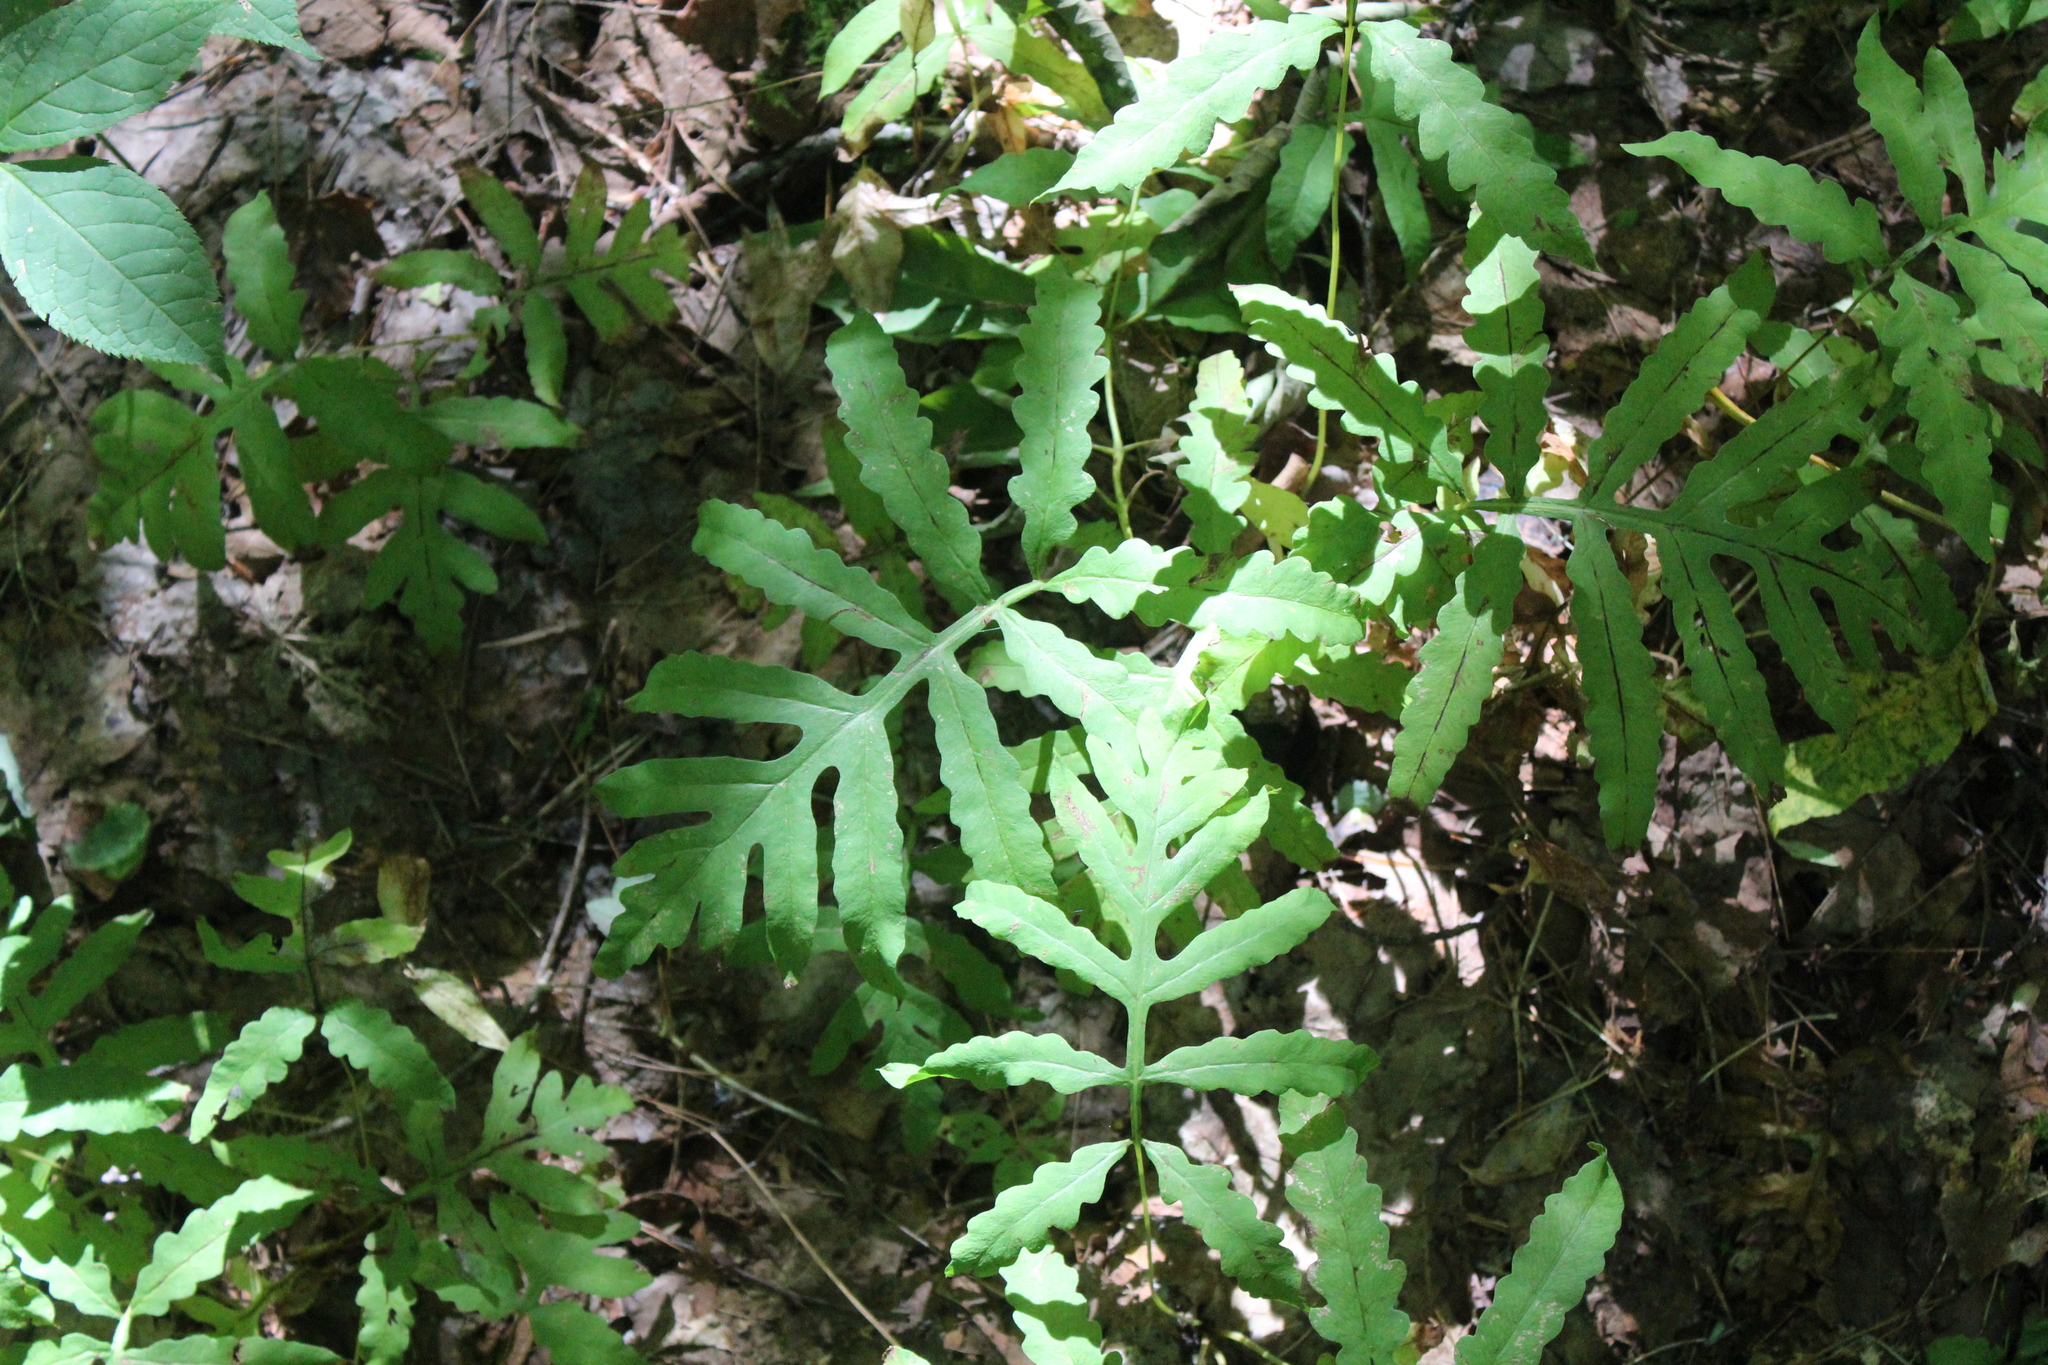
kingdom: Plantae
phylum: Tracheophyta
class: Polypodiopsida
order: Polypodiales
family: Onocleaceae
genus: Onoclea
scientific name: Onoclea sensibilis
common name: Sensitive fern
